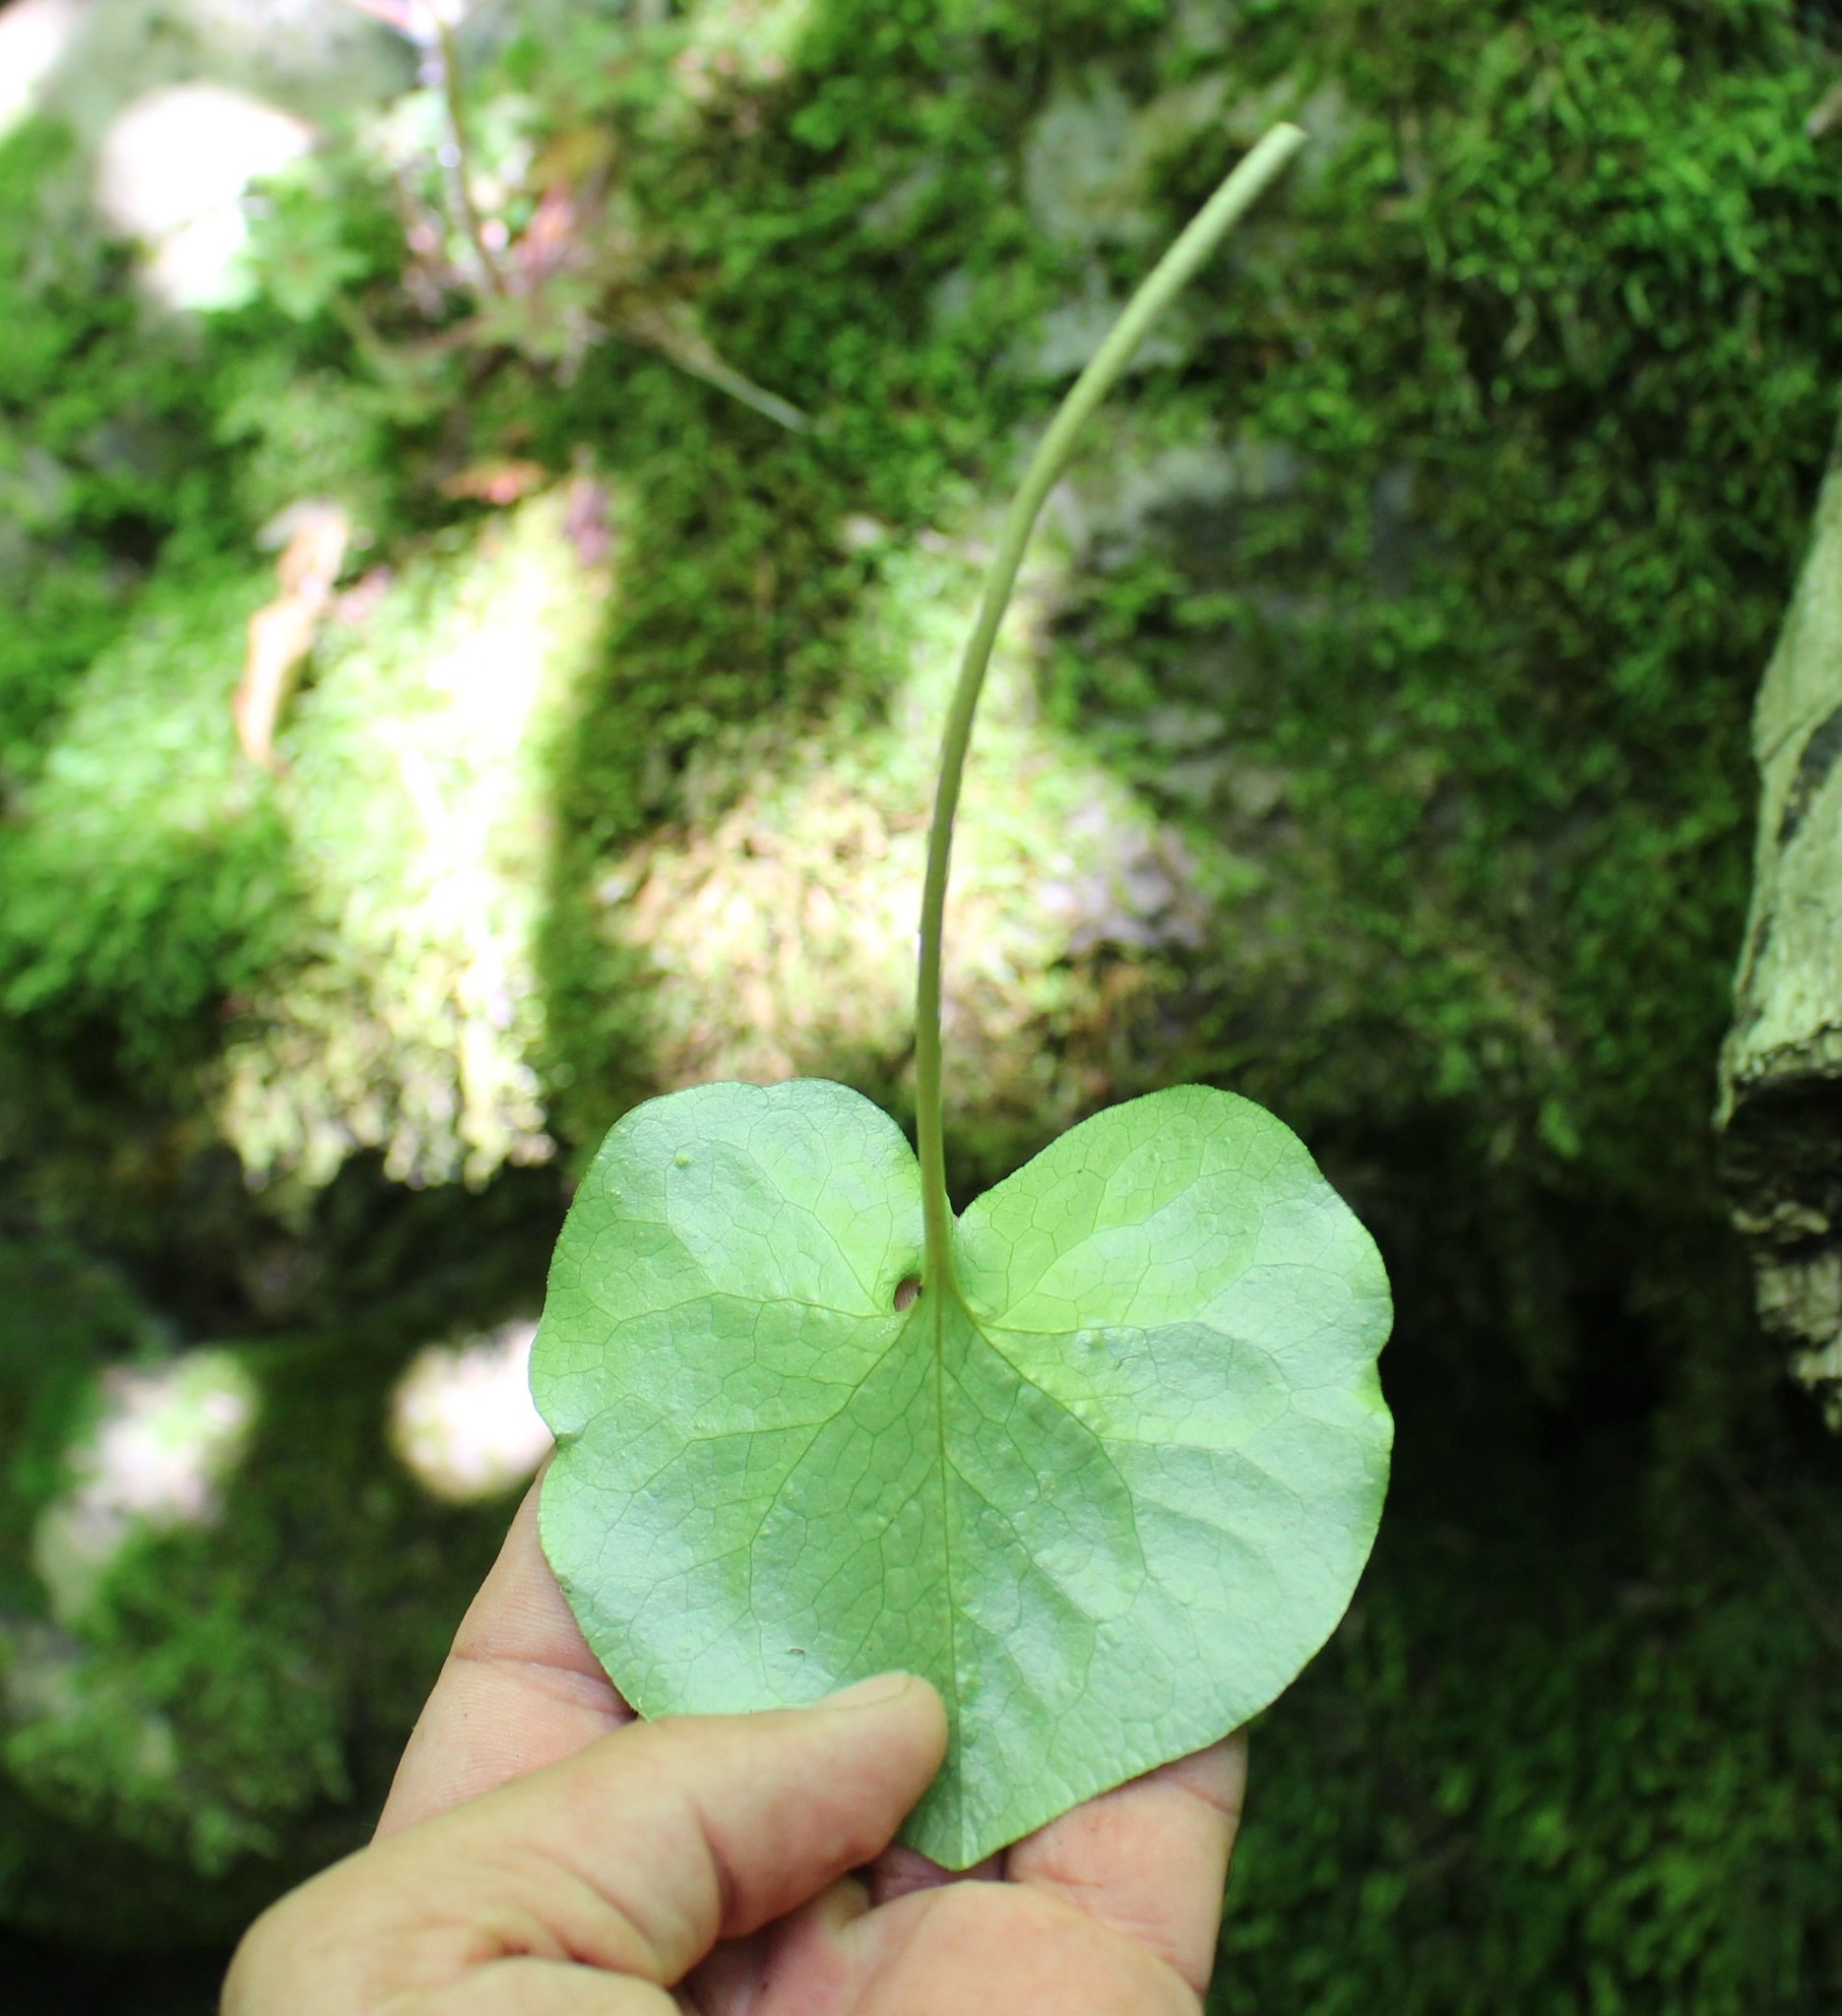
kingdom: Plantae
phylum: Tracheophyta
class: Magnoliopsida
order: Piperales
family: Aristolochiaceae
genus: Asarum
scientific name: Asarum europaeum
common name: Asarabacca
